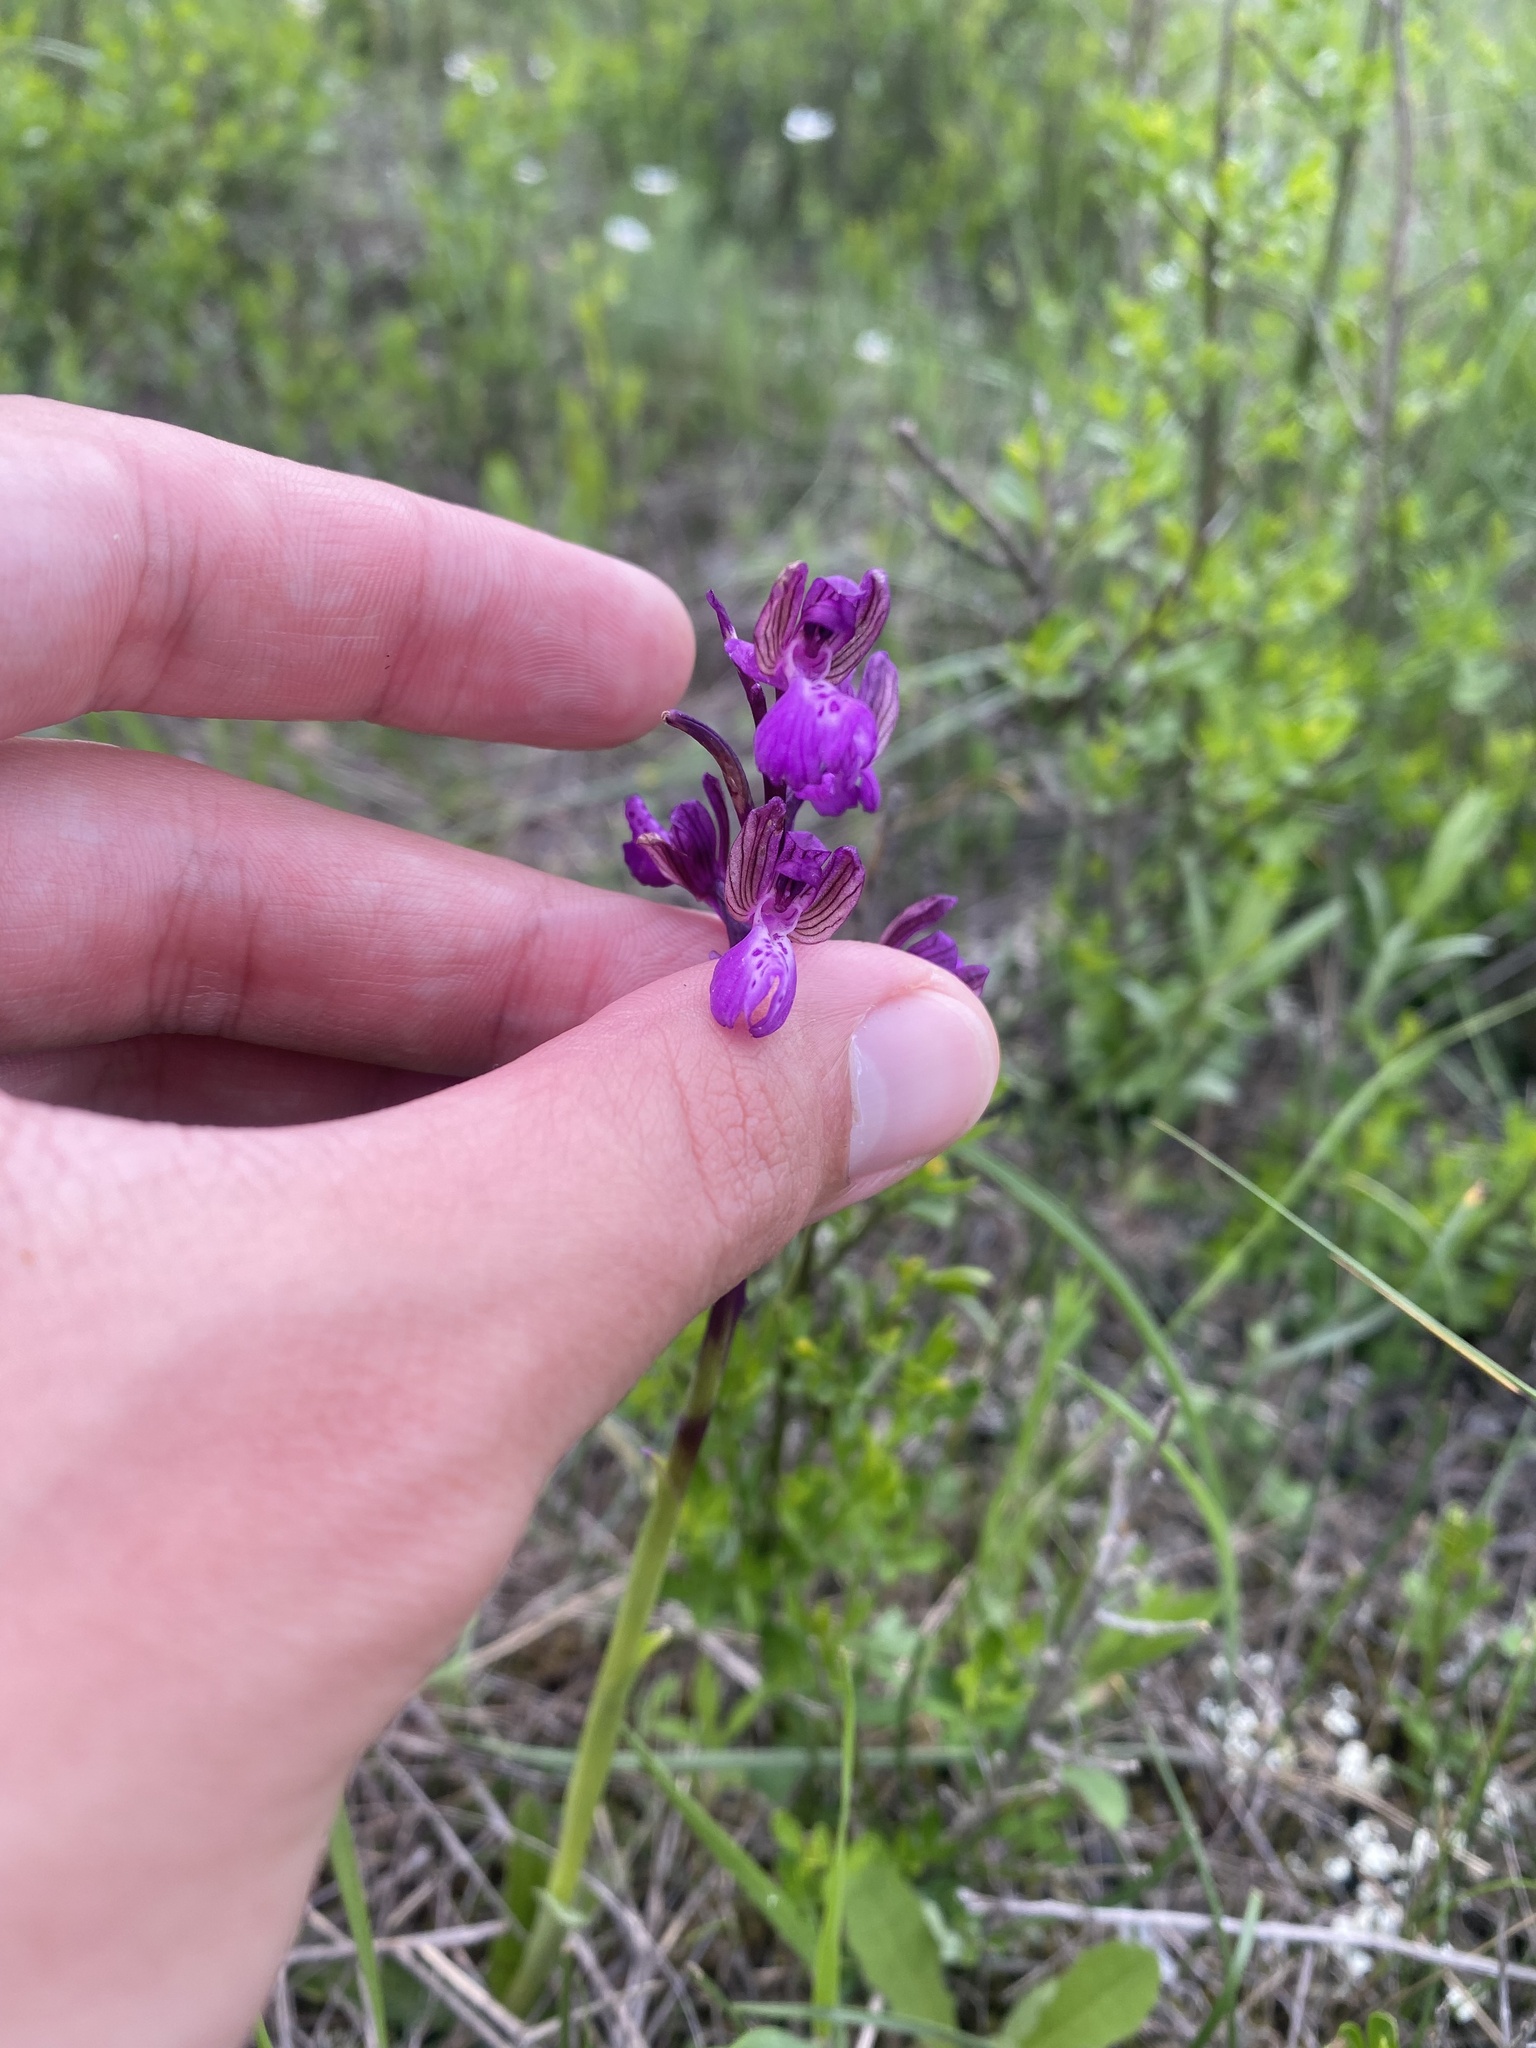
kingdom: Plantae
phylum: Tracheophyta
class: Liliopsida
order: Asparagales
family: Orchidaceae
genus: Anacamptis
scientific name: Anacamptis morio
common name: Green-winged orchid
